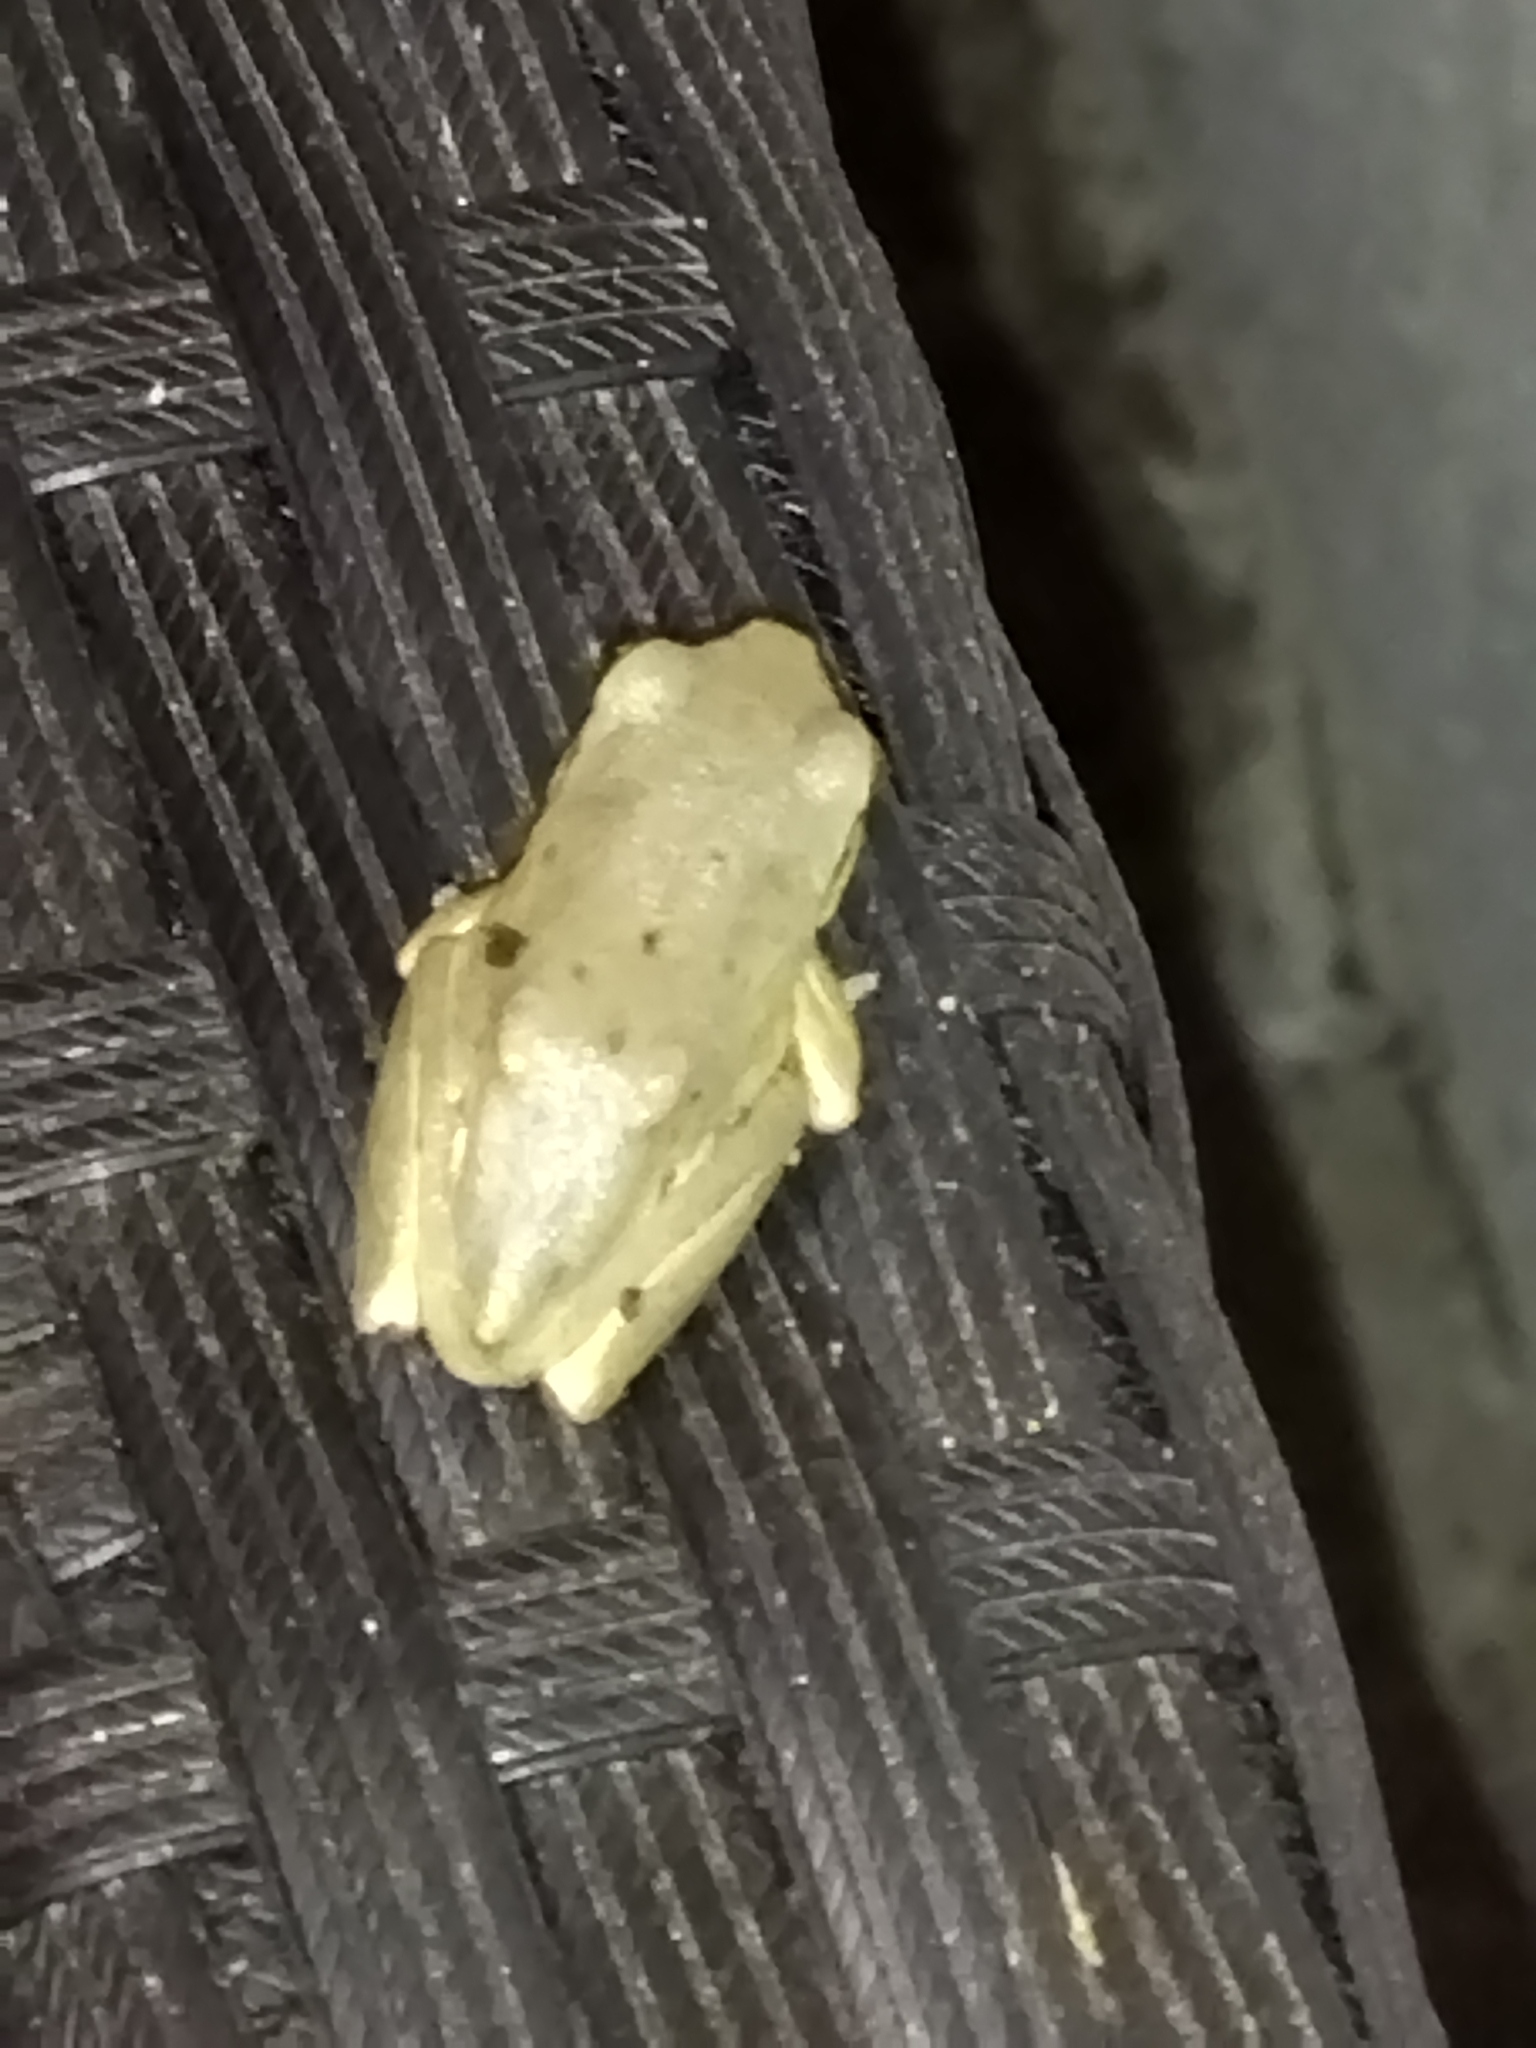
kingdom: Animalia
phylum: Chordata
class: Amphibia
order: Anura
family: Hylidae
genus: Hyla
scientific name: Hyla orientalis
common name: Caucasian treefrog
